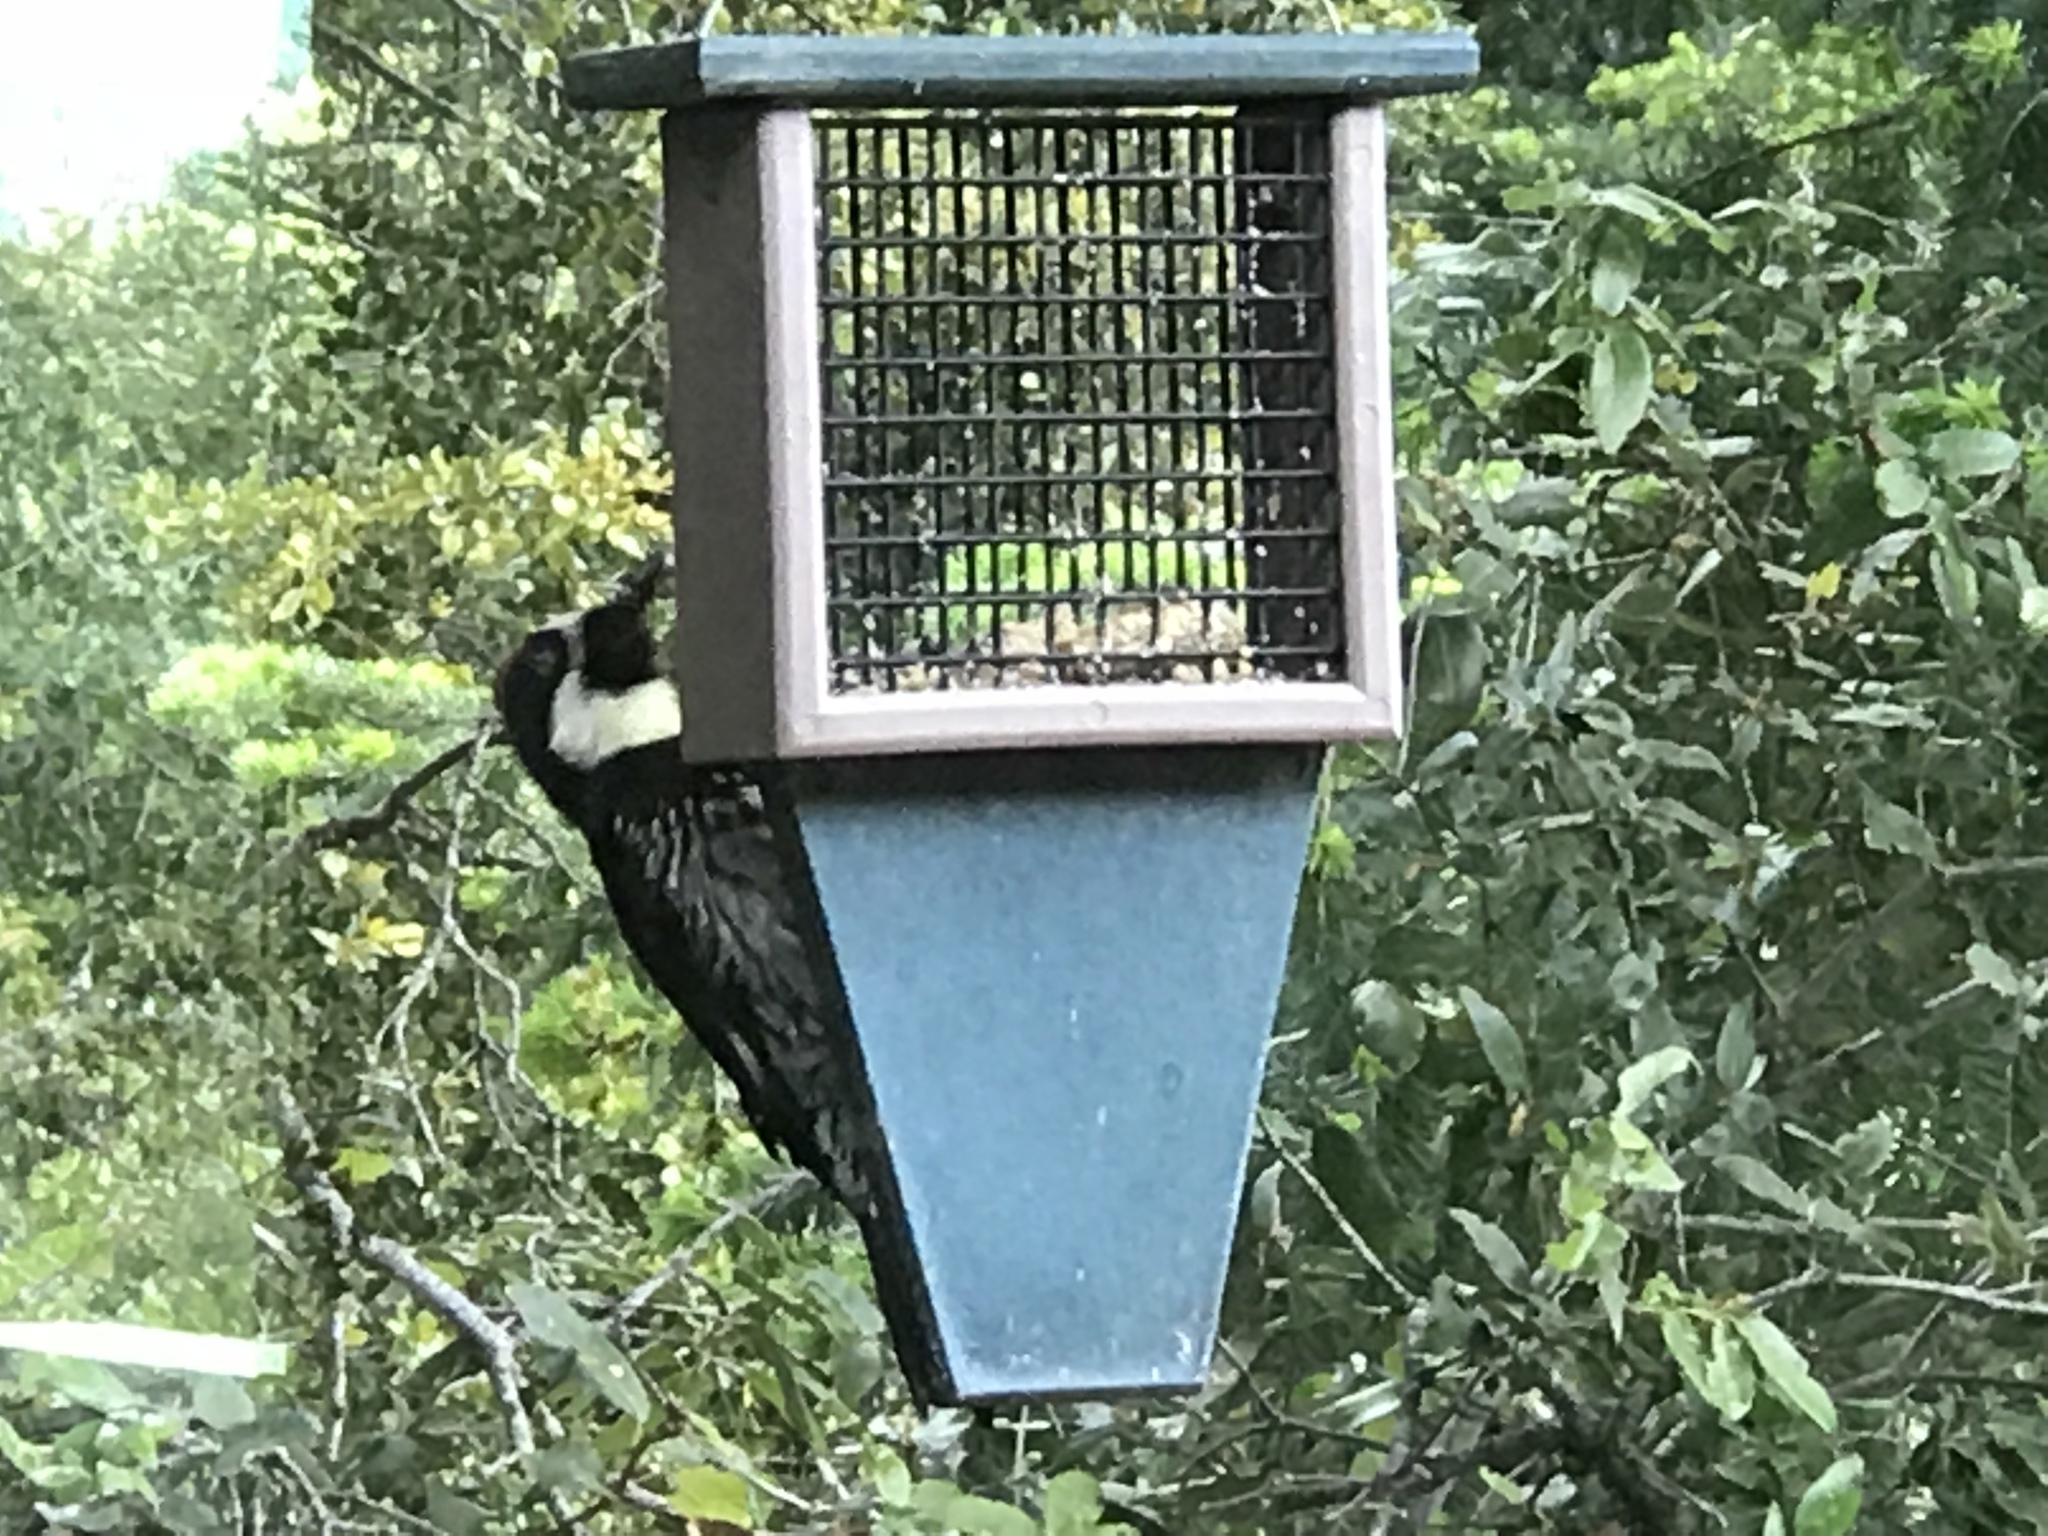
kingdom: Animalia
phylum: Chordata
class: Aves
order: Piciformes
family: Picidae
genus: Melanerpes
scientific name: Melanerpes formicivorus
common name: Acorn woodpecker
